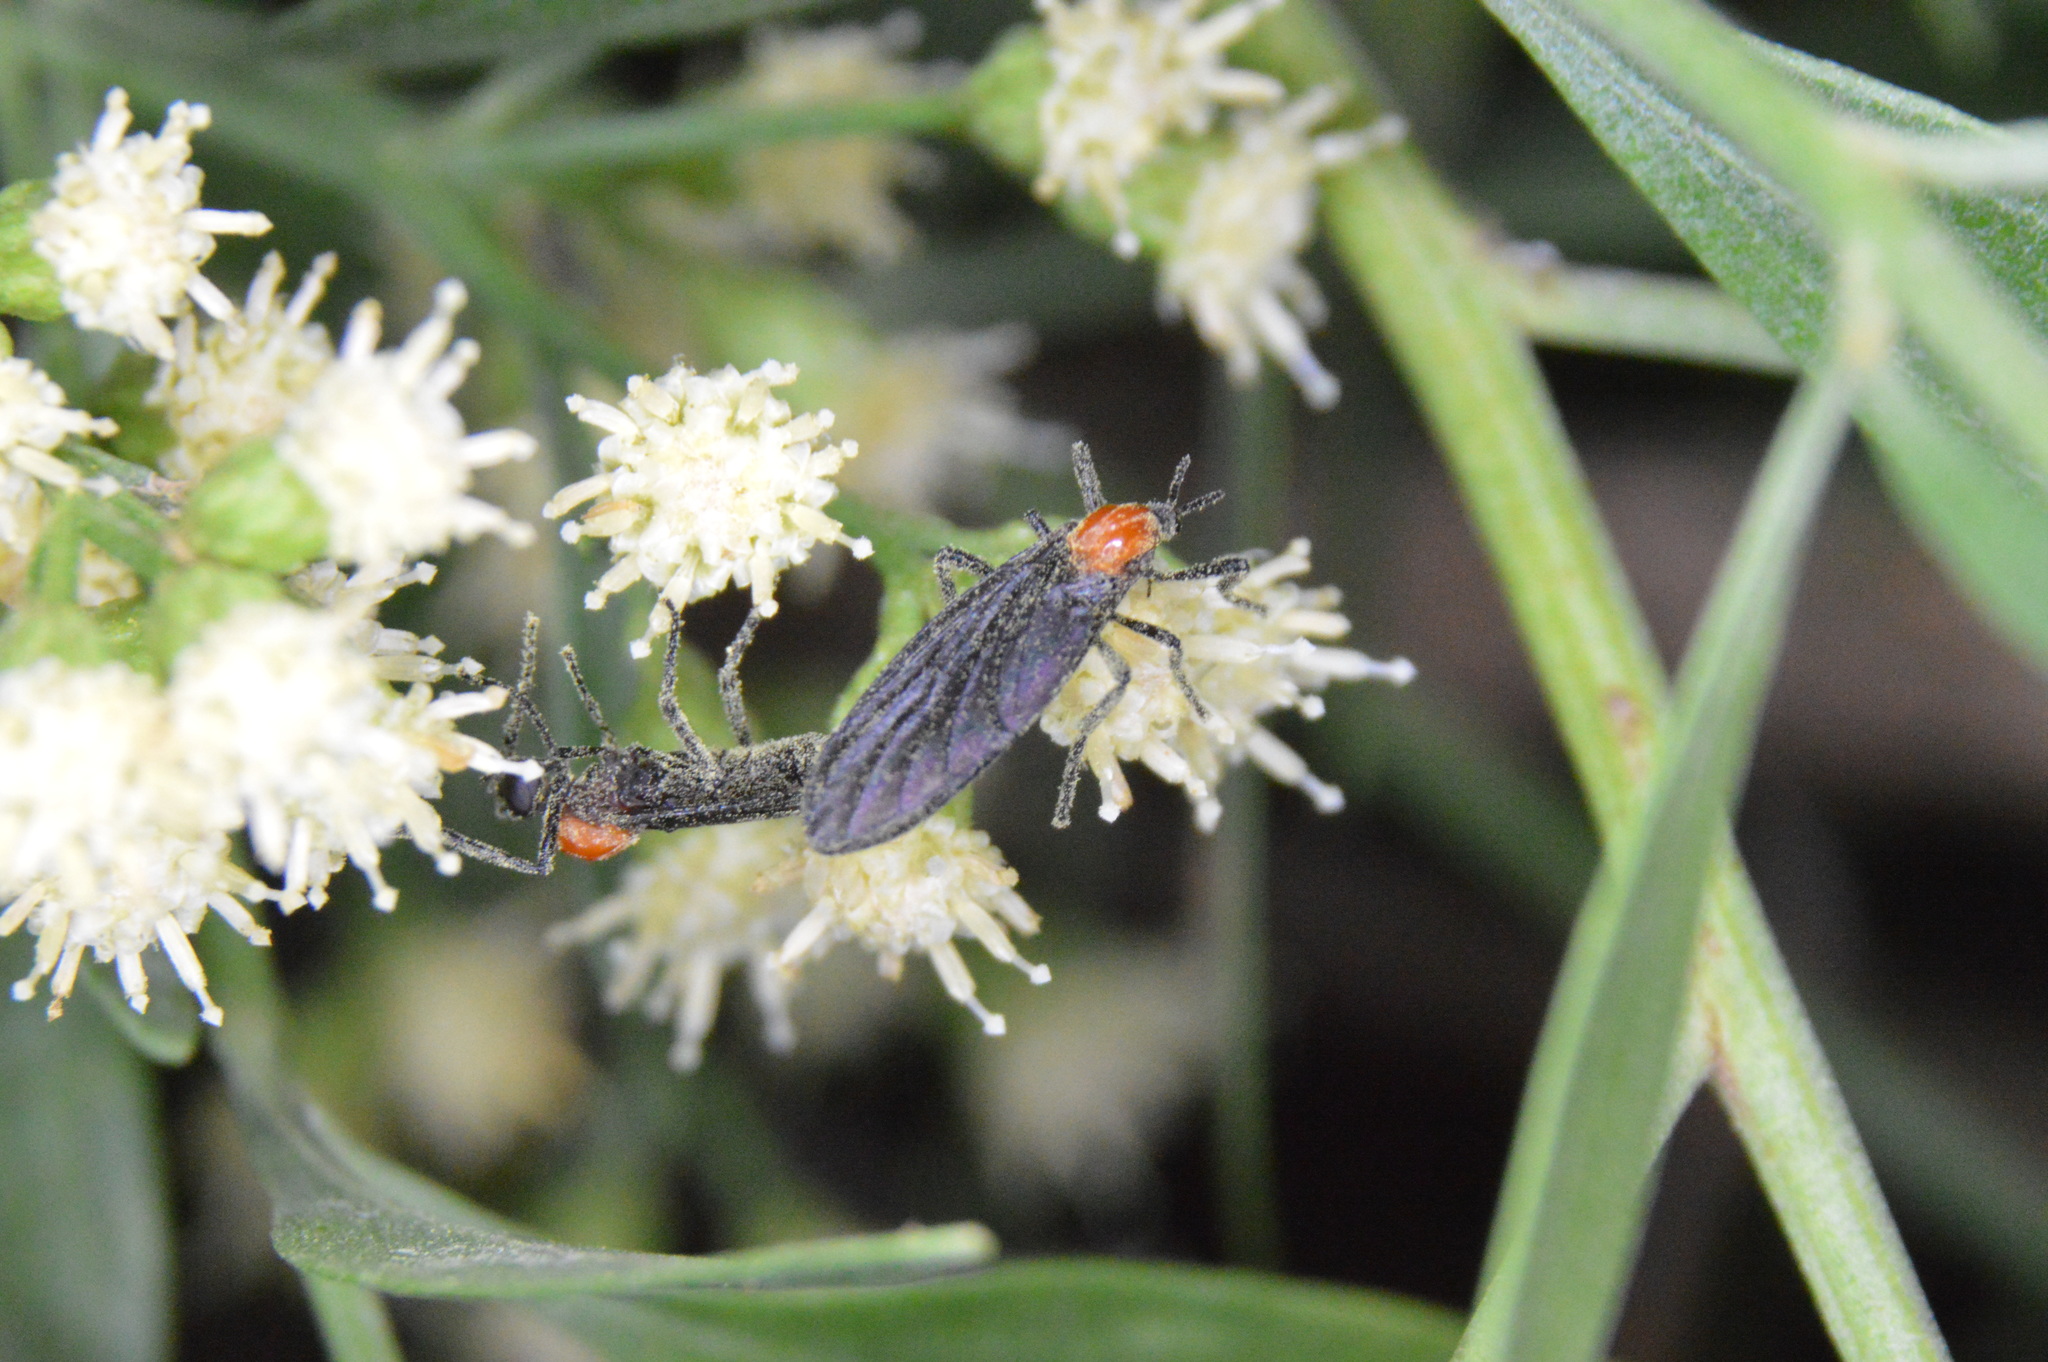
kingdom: Animalia
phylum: Arthropoda
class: Insecta
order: Diptera
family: Bibionidae
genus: Plecia
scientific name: Plecia nearctica
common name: March fly
